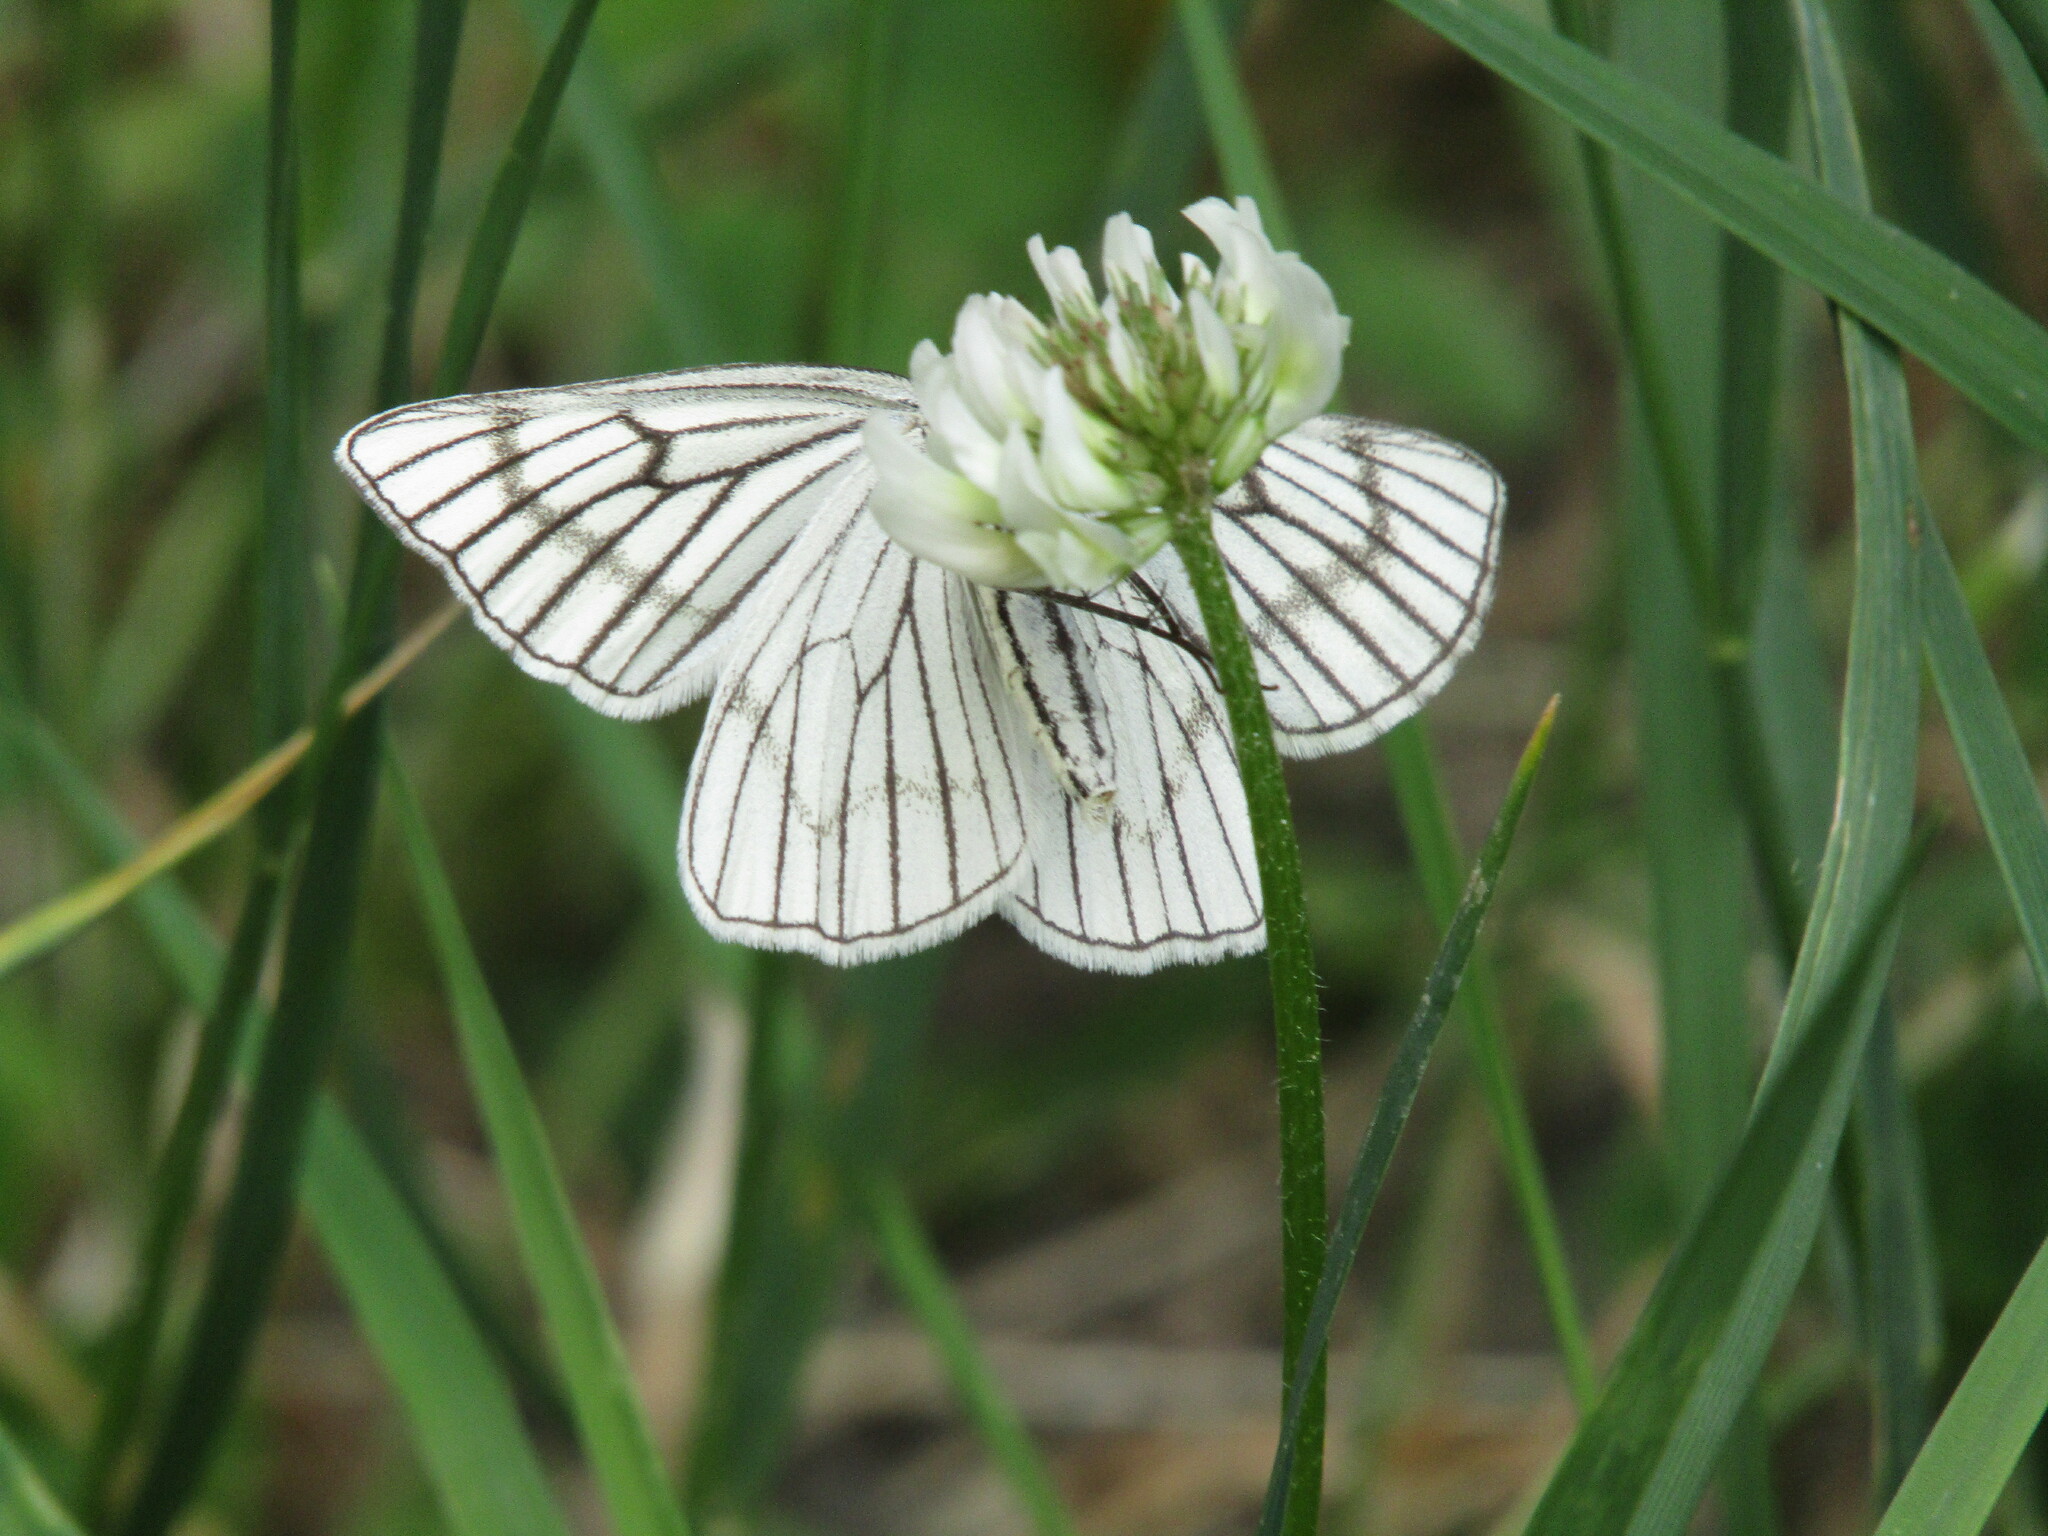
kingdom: Animalia
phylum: Arthropoda
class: Insecta
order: Lepidoptera
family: Geometridae
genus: Siona
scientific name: Siona lineata
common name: Black-veined moth
